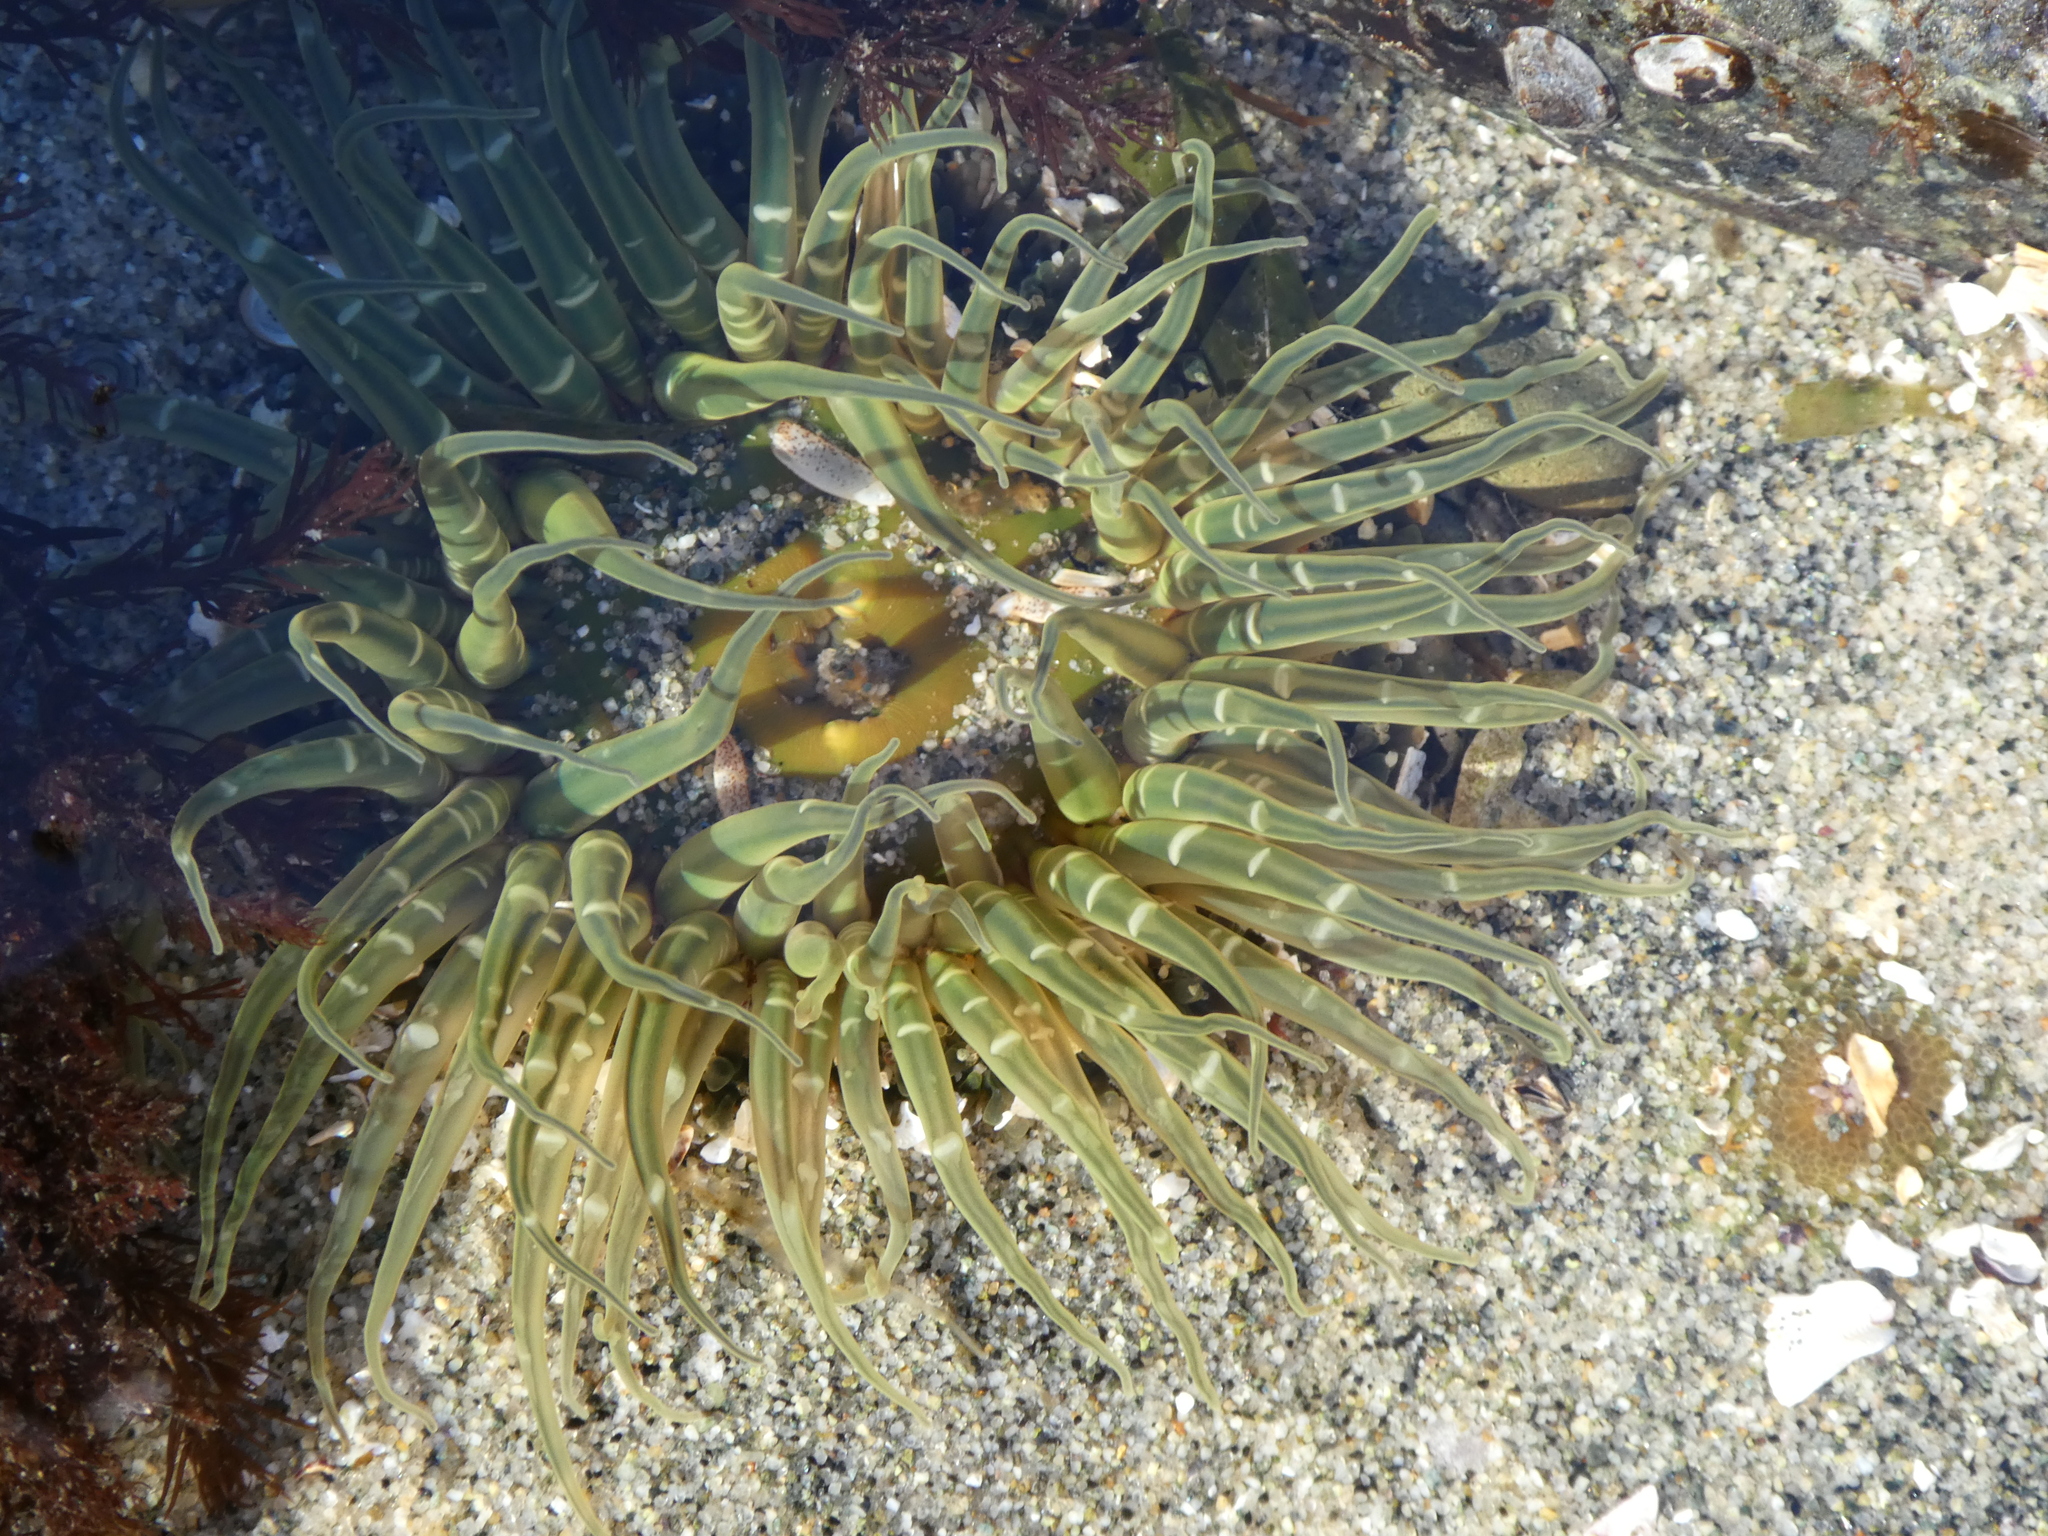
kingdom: Animalia
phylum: Cnidaria
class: Anthozoa
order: Actiniaria
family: Actiniidae
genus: Anthopleura
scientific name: Anthopleura artemisia
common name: Buried sea anemone
